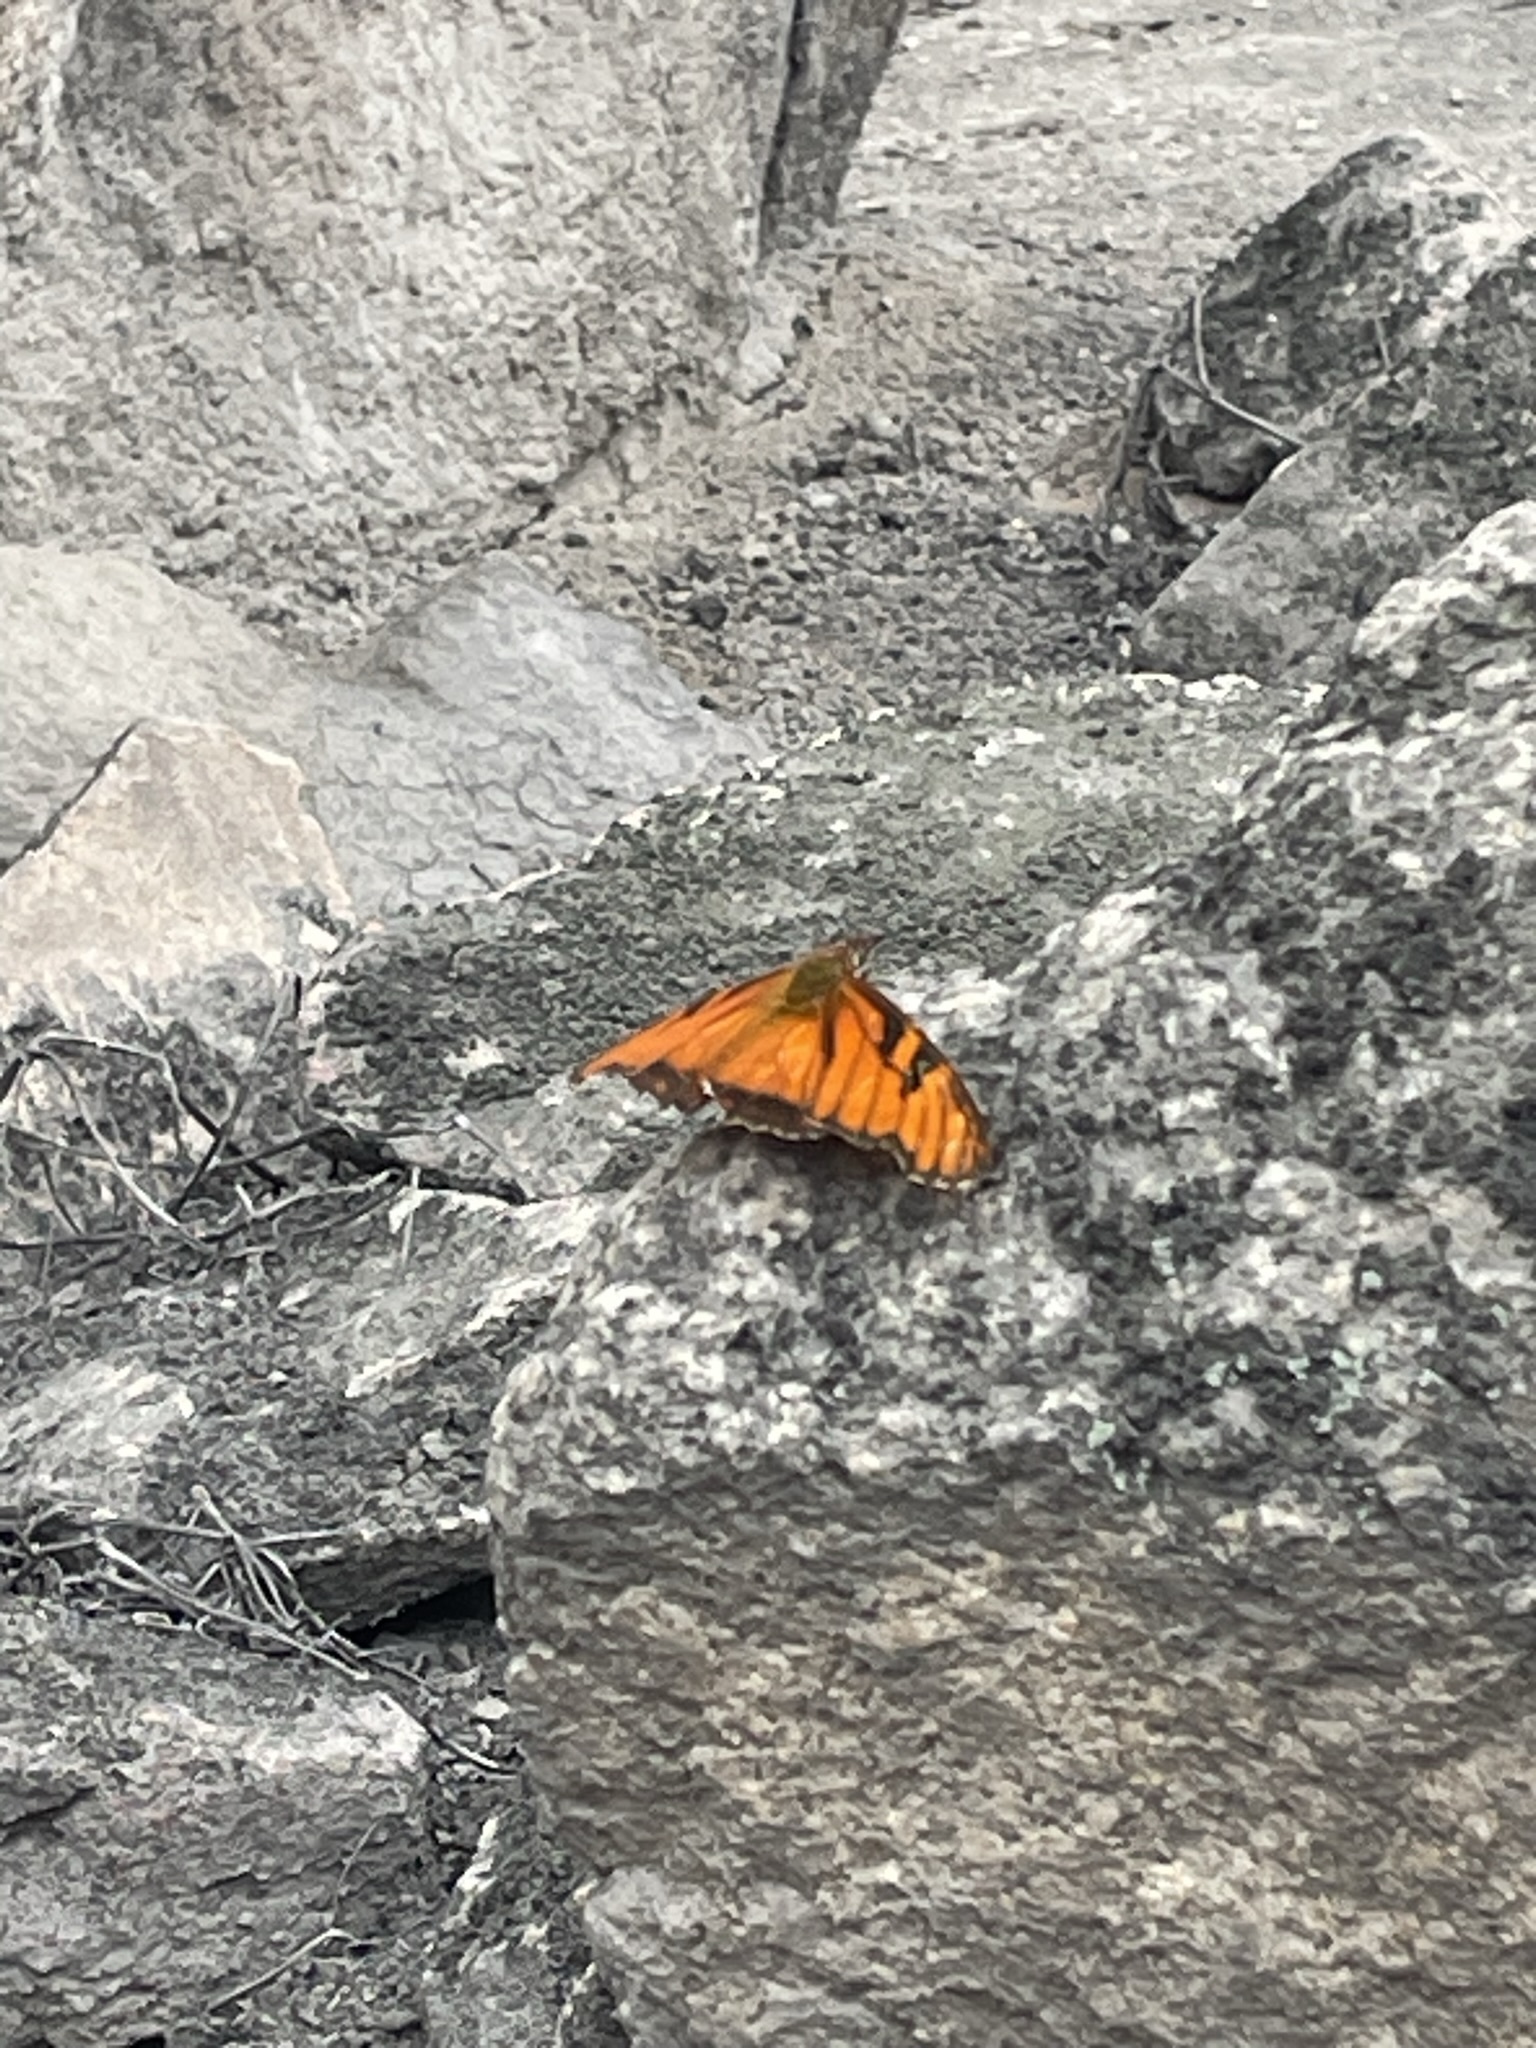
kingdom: Animalia
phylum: Arthropoda
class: Insecta
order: Lepidoptera
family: Nymphalidae
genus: Dione
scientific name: Dione juno
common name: Juno silverspot
